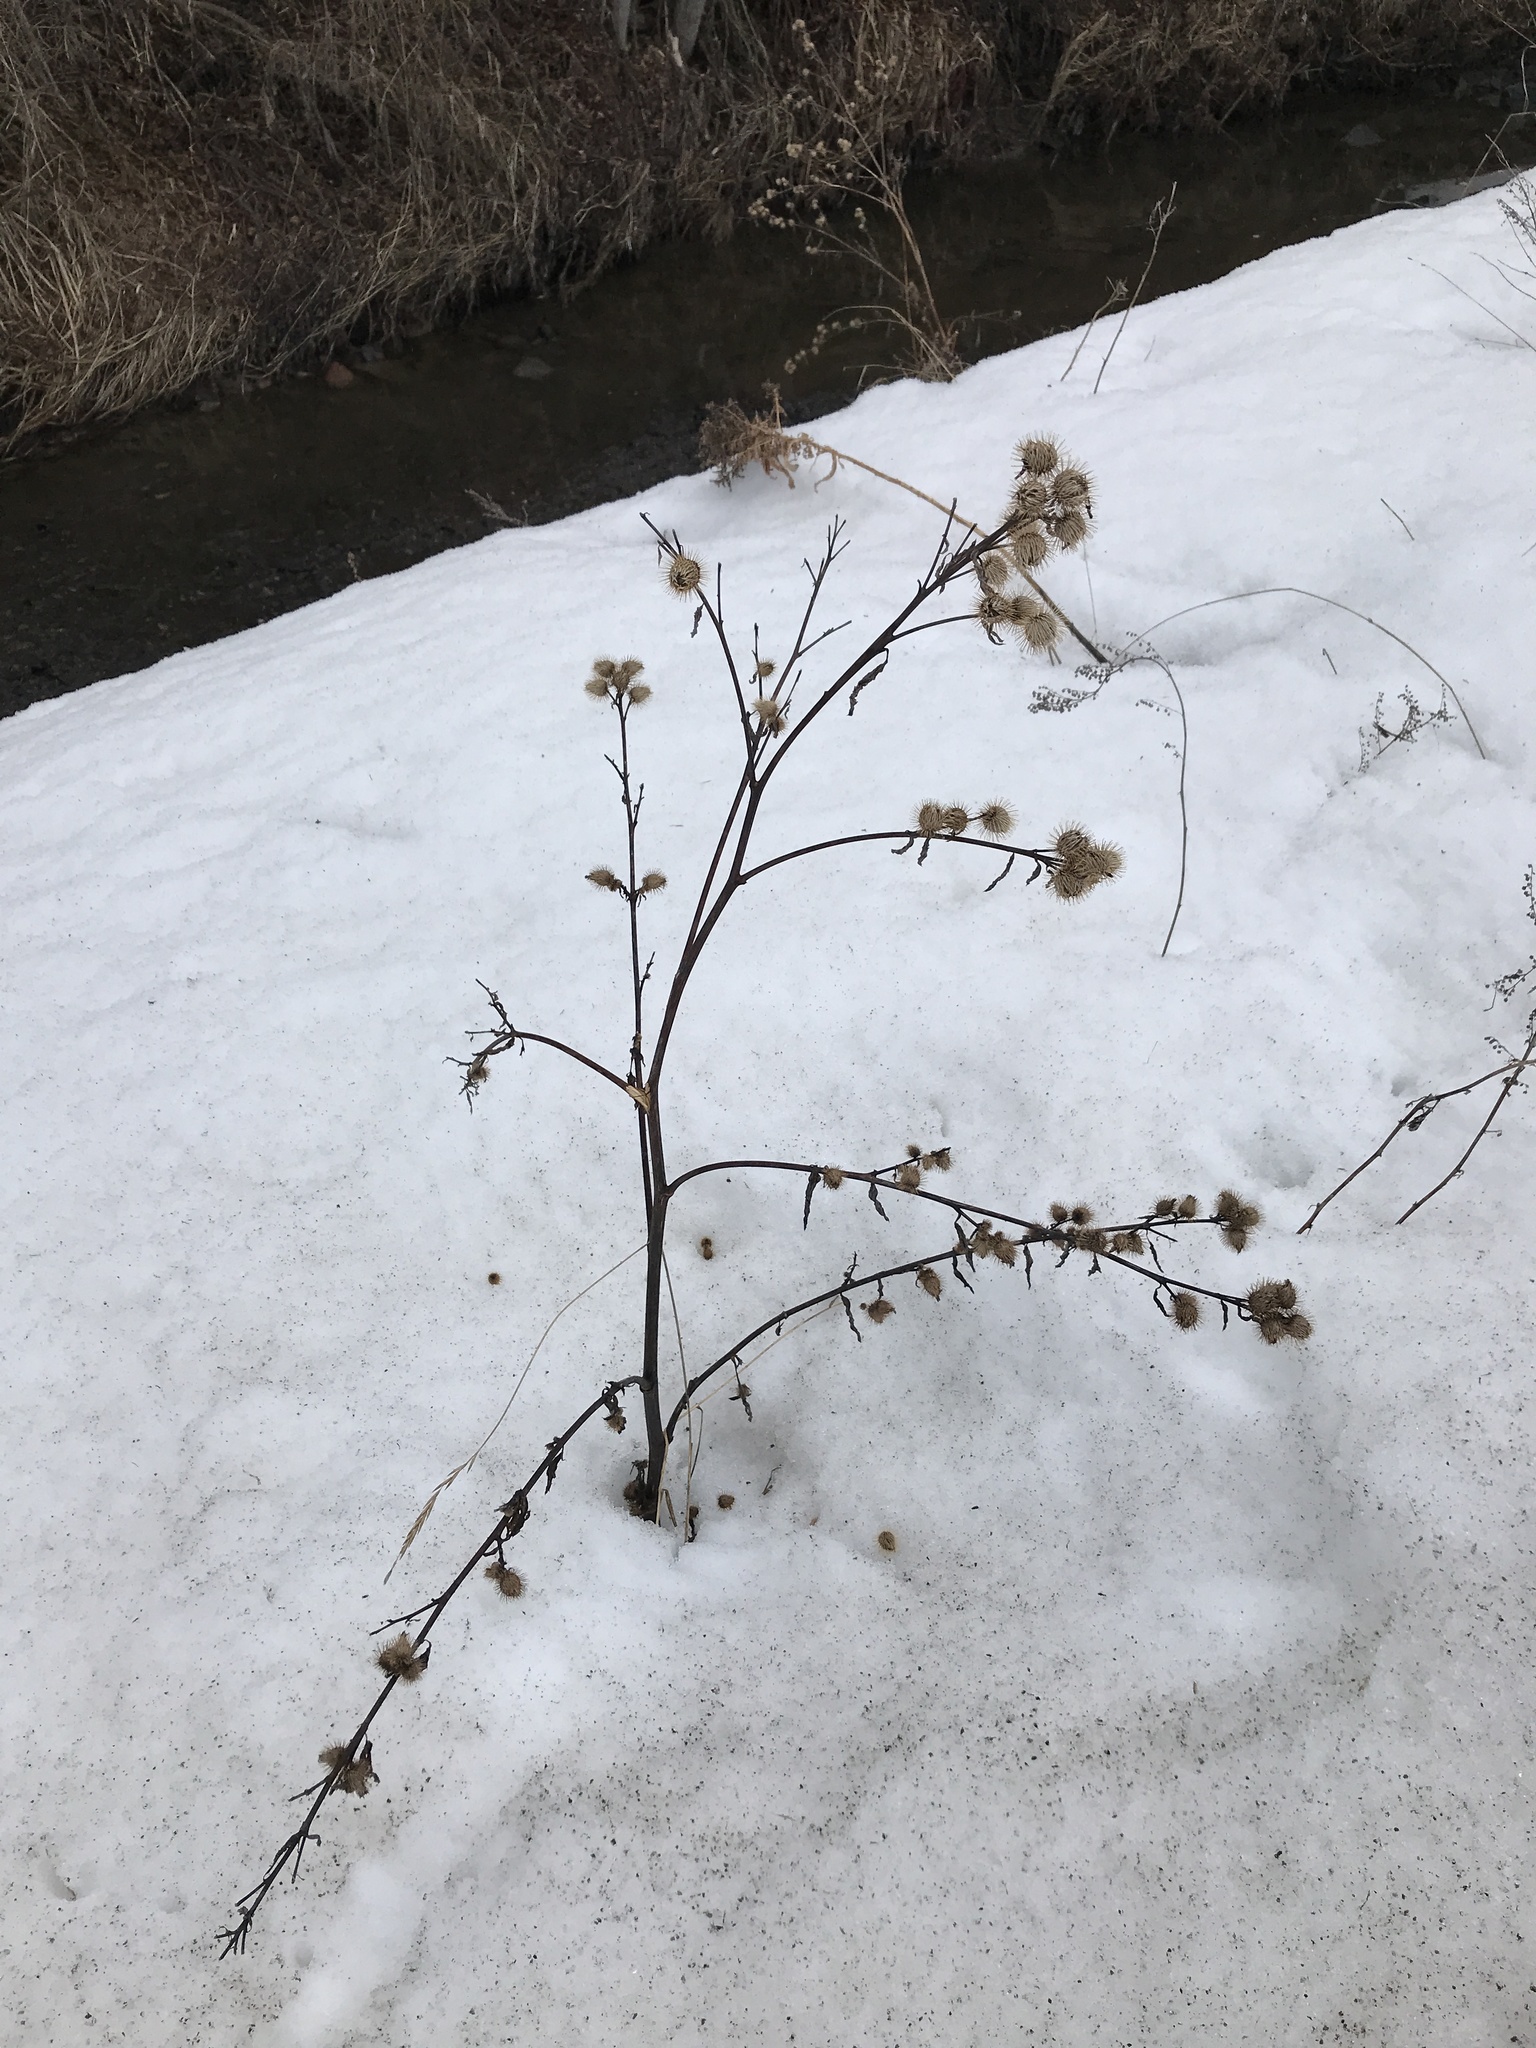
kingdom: Plantae
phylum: Tracheophyta
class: Magnoliopsida
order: Asterales
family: Asteraceae
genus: Arctium
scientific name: Arctium minus
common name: Lesser burdock
